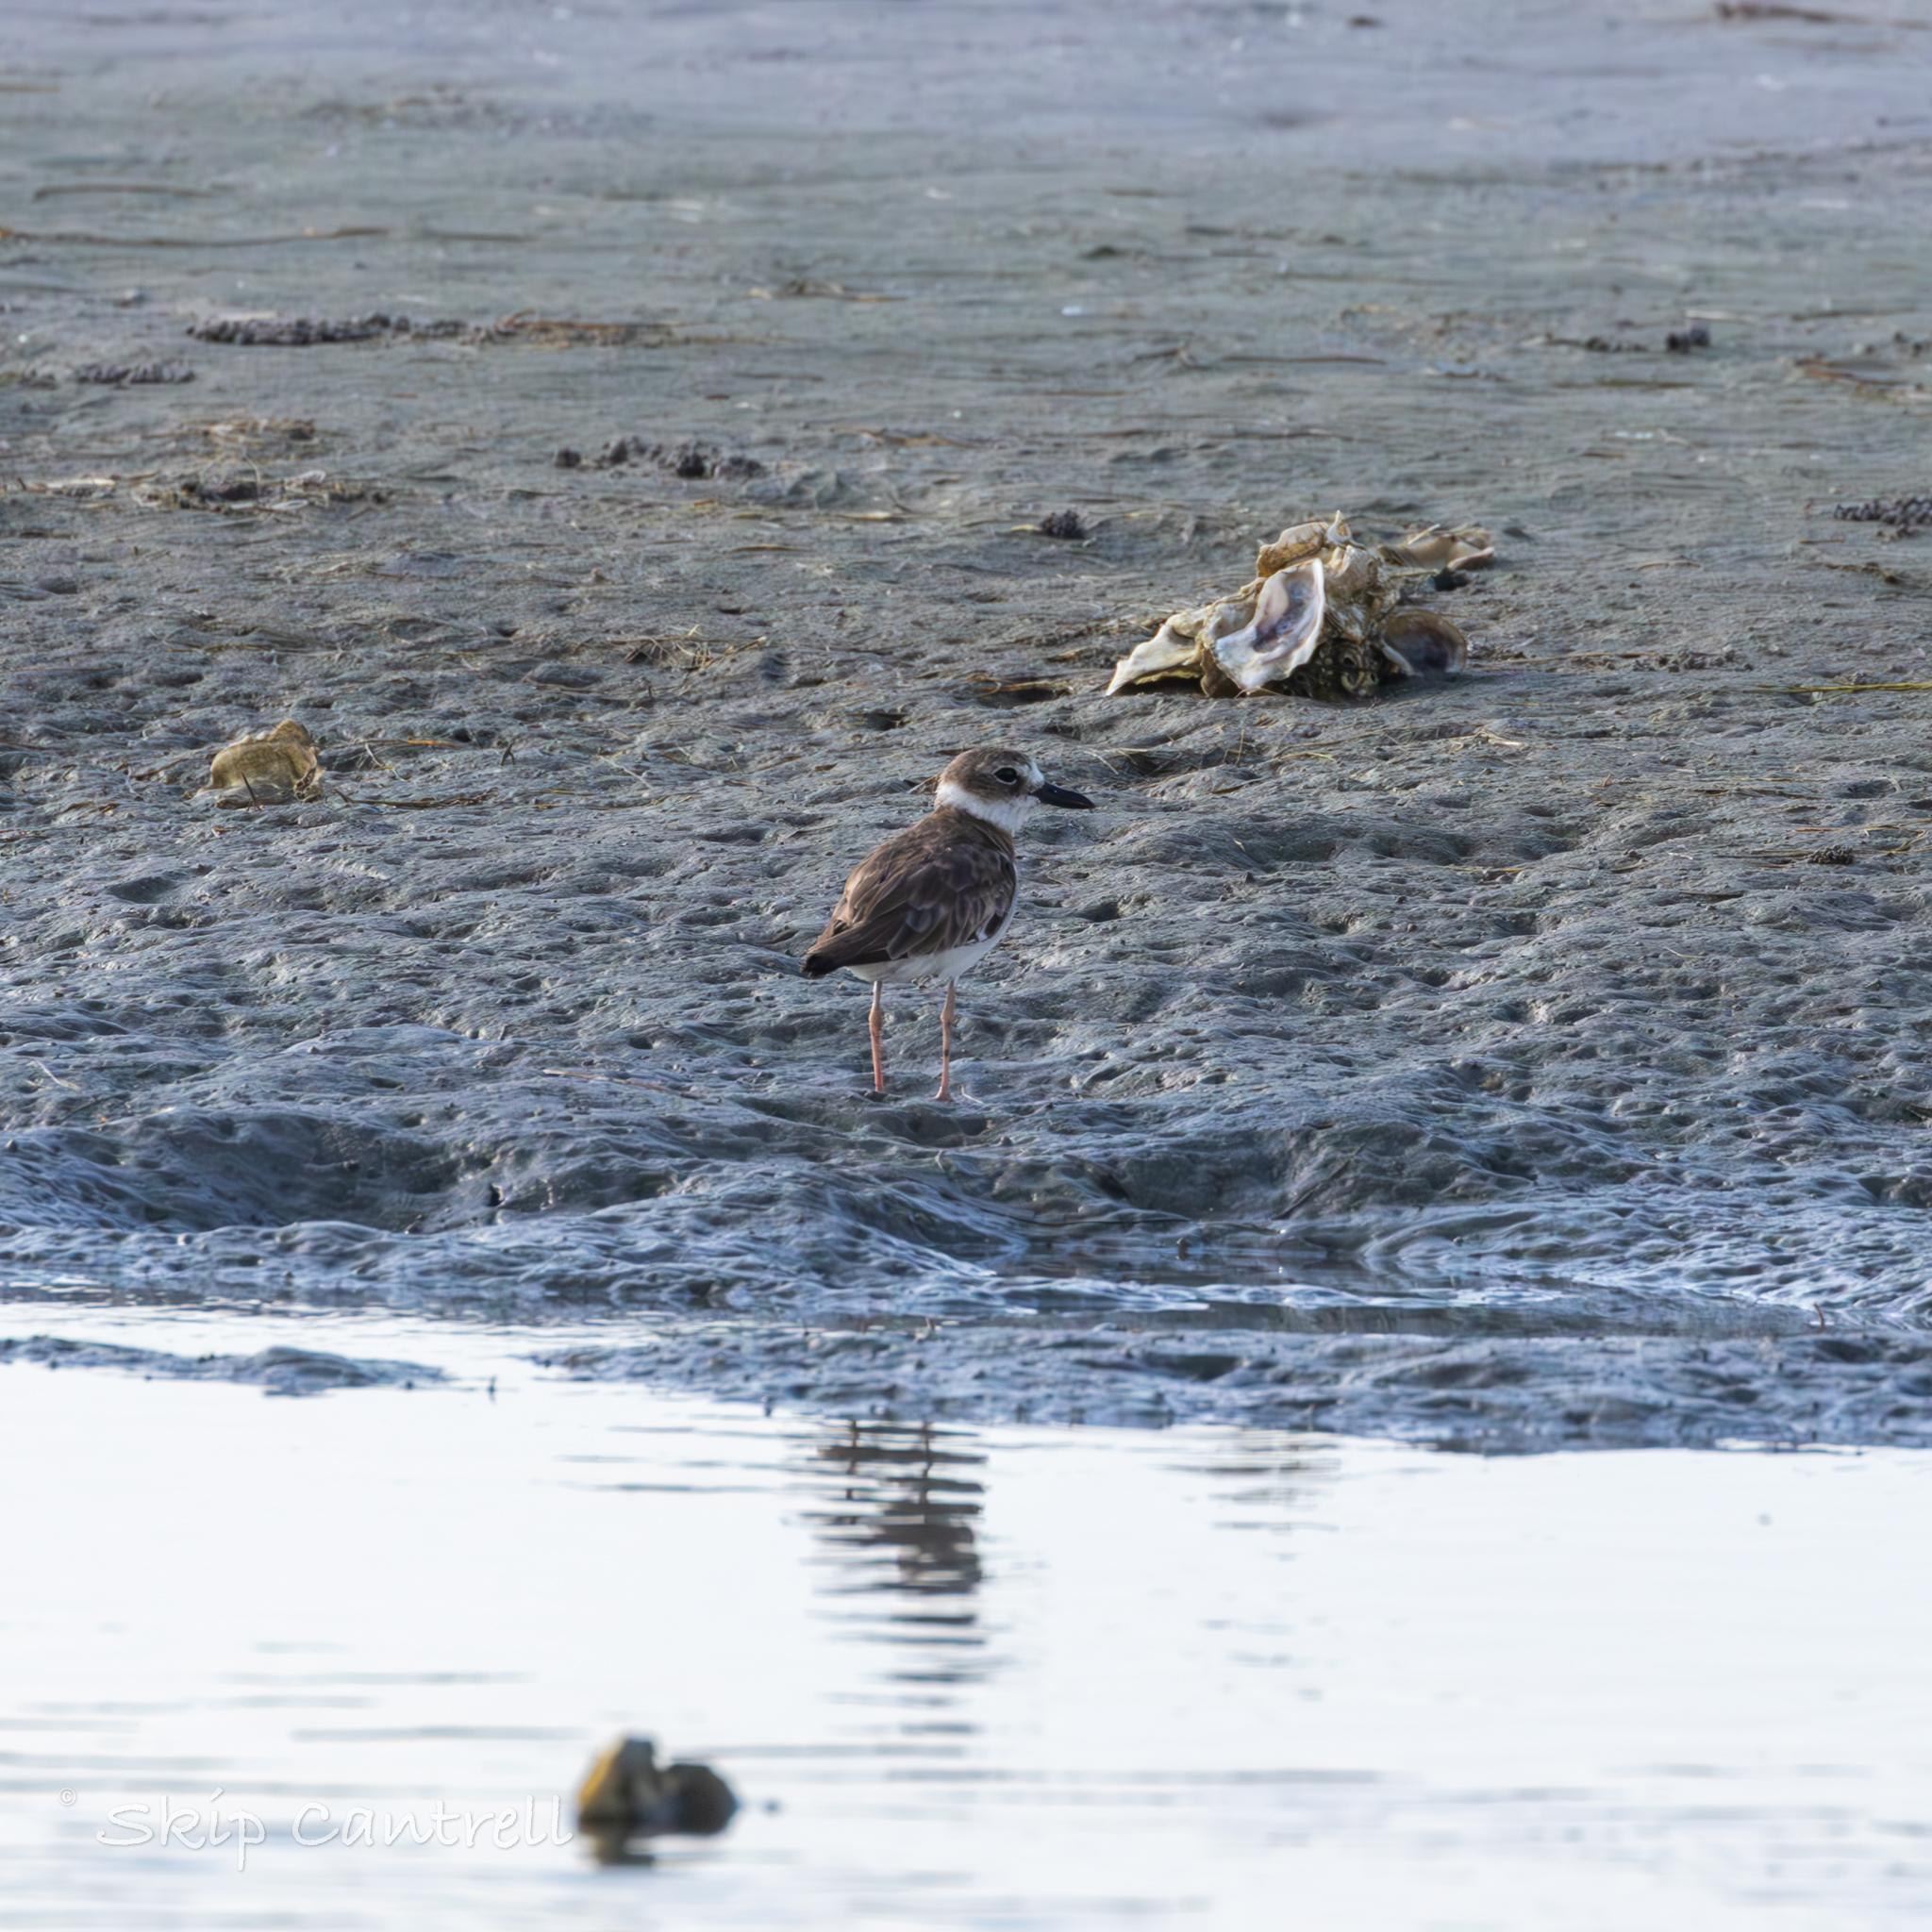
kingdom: Animalia
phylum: Chordata
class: Aves
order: Charadriiformes
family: Charadriidae
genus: Anarhynchus
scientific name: Anarhynchus
